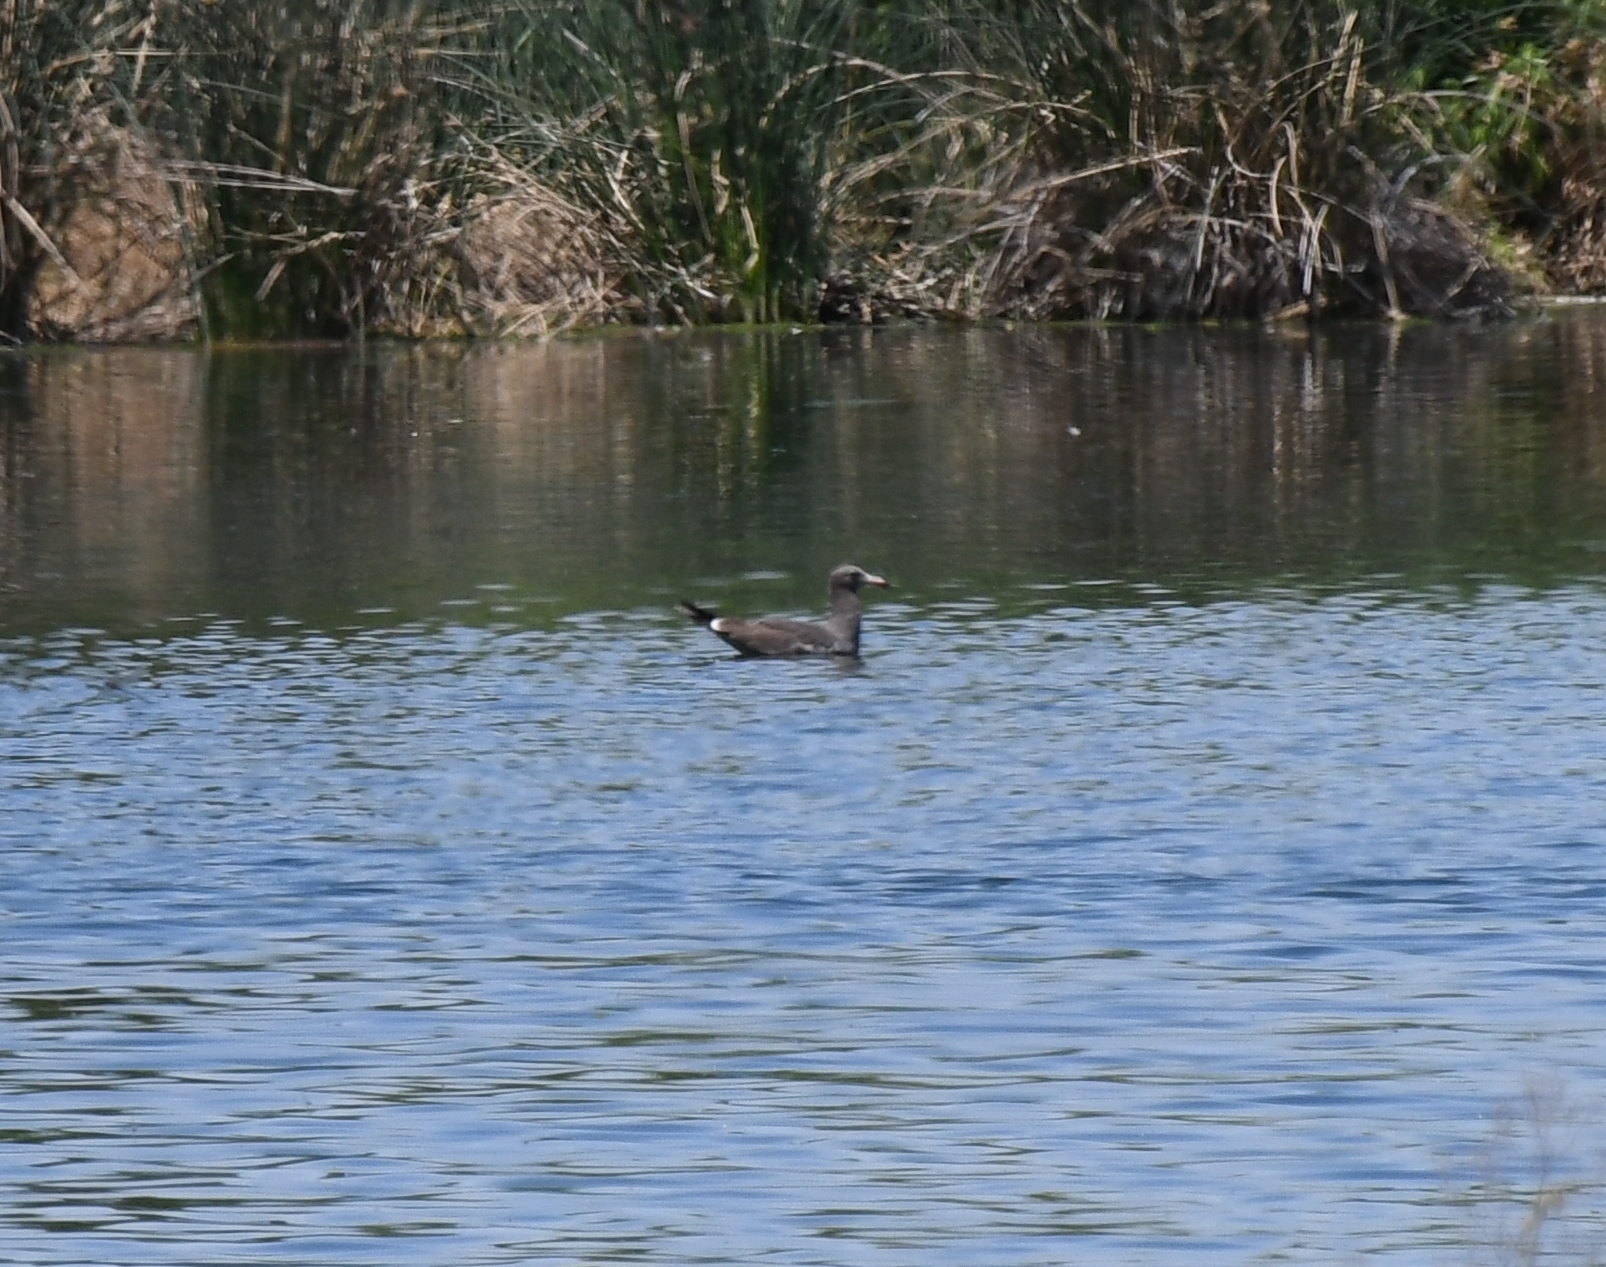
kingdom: Animalia
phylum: Chordata
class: Aves
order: Charadriiformes
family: Laridae
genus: Larus
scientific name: Larus heermanni
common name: Heermann's gull
